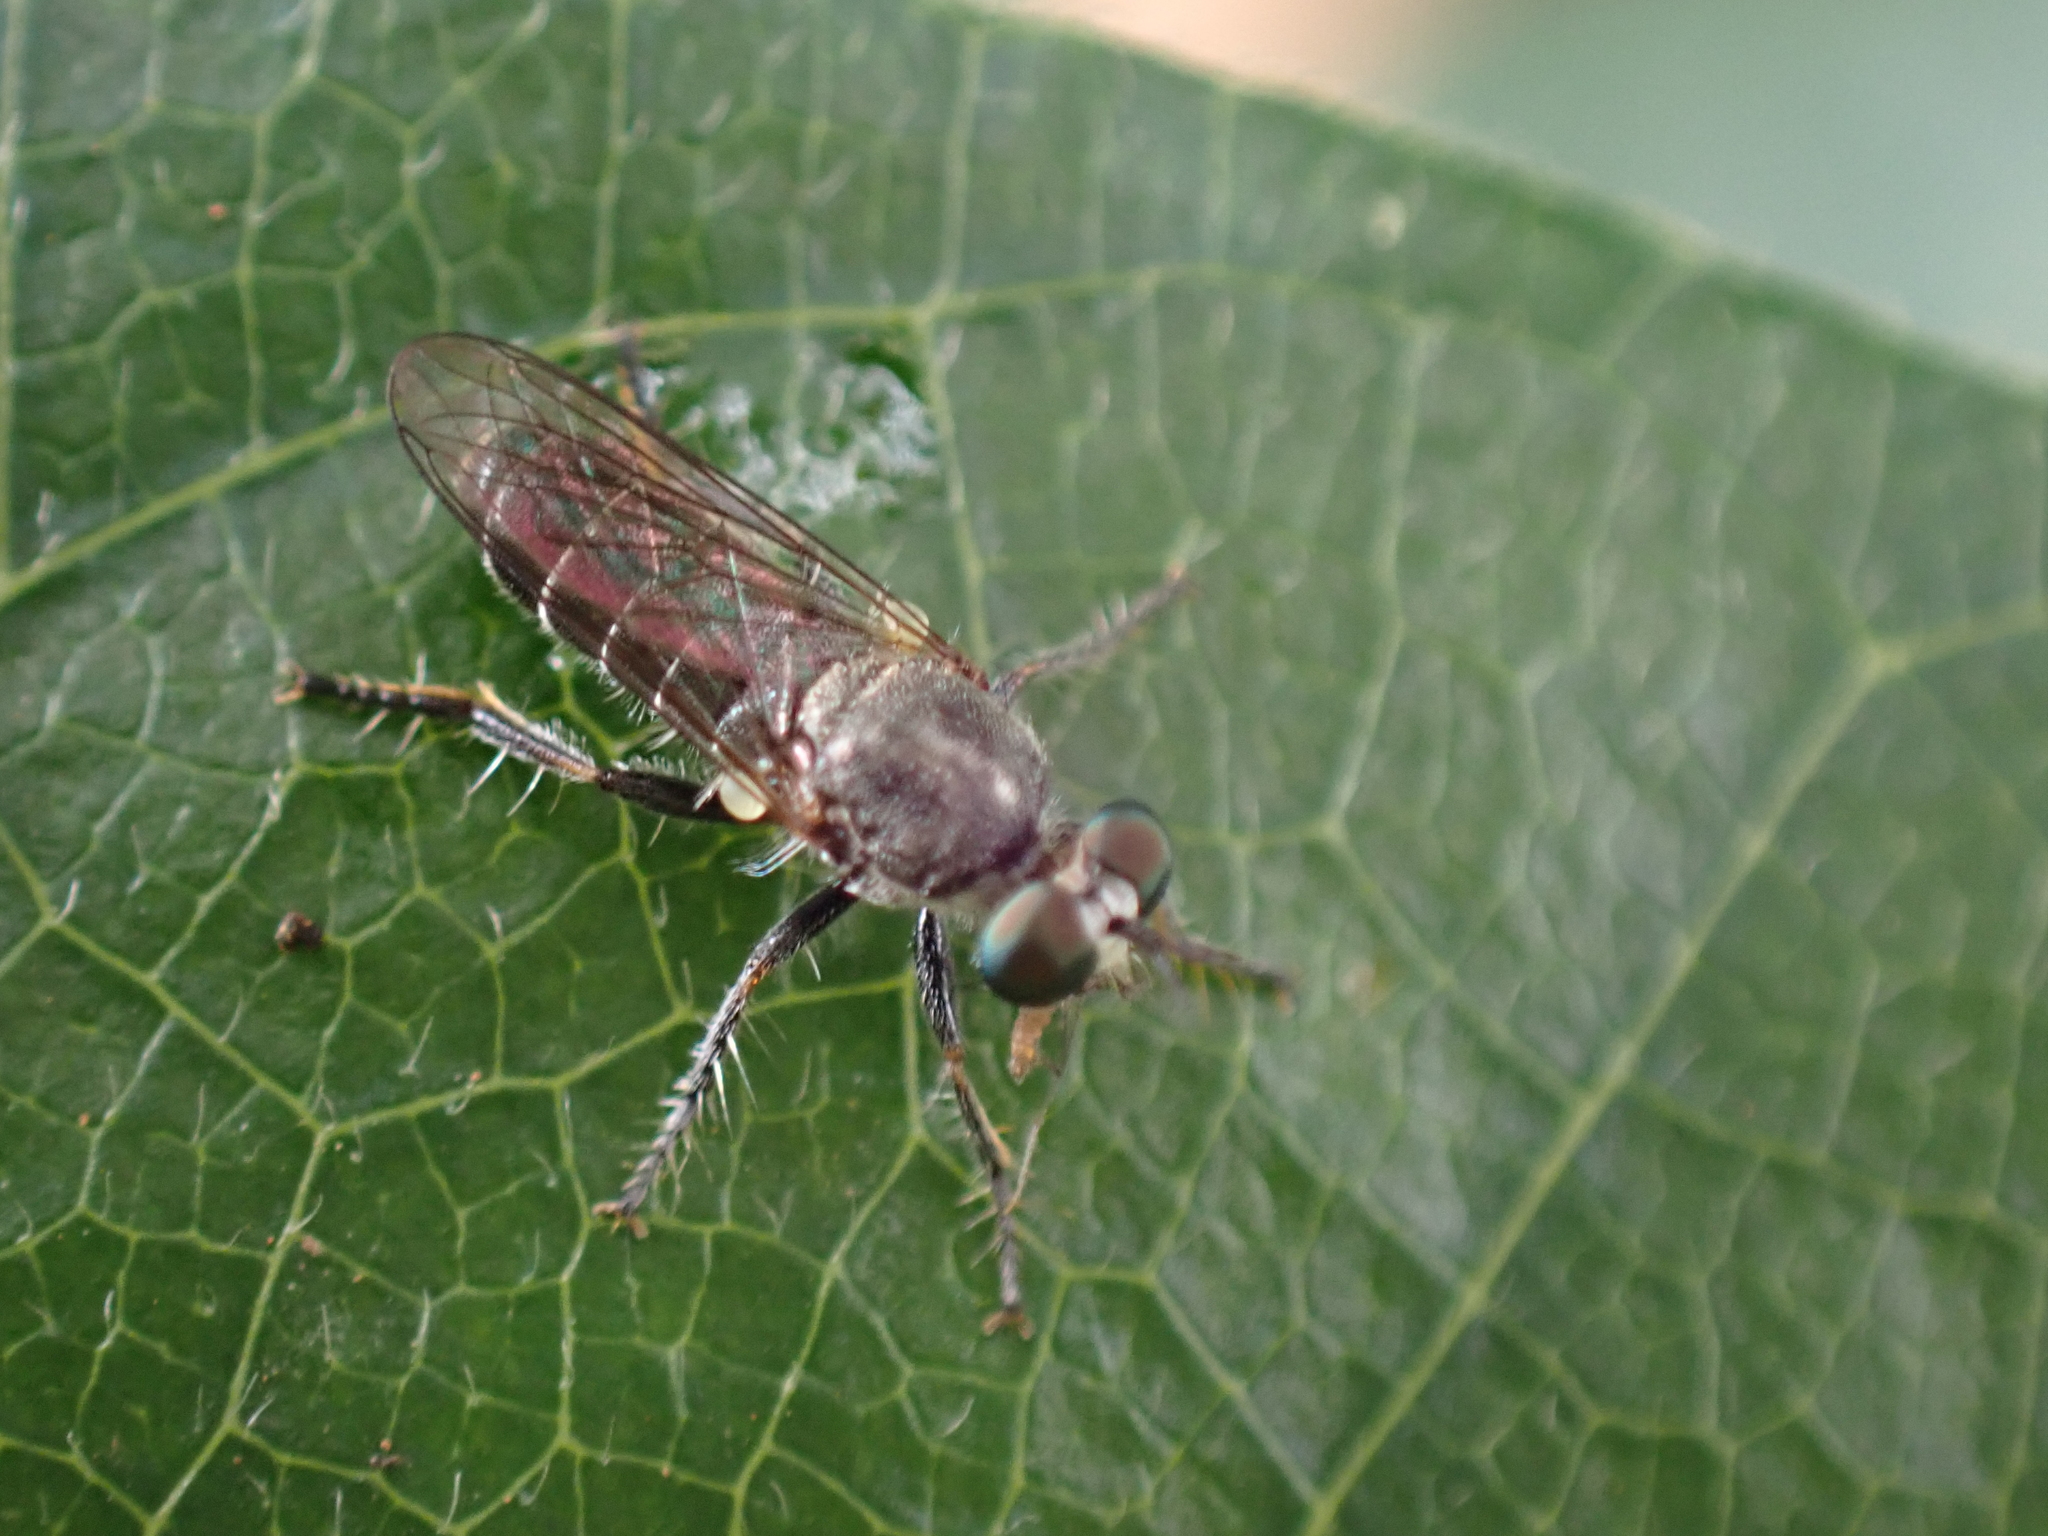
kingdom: Animalia
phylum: Arthropoda
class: Insecta
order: Diptera
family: Asilidae
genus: Atomosia
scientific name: Atomosia puella
